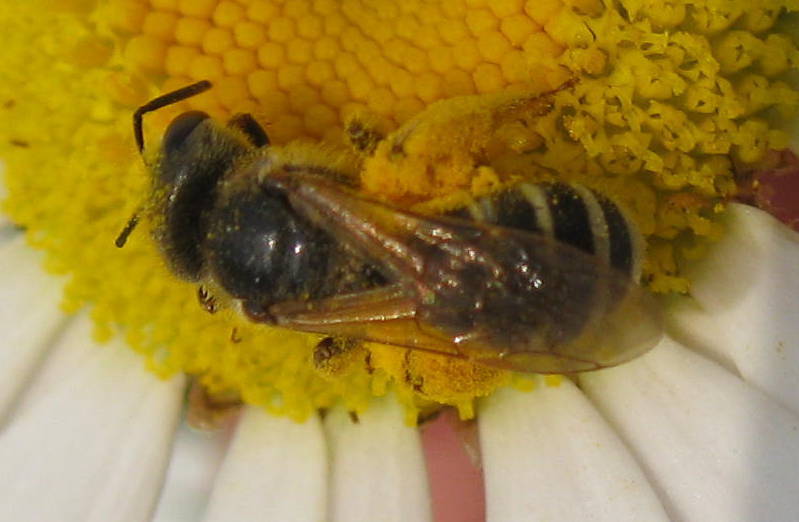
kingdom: Animalia
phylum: Arthropoda
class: Insecta
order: Hymenoptera
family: Halictidae
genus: Halictus
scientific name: Halictus ligatus
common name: Ligated furrow bee
